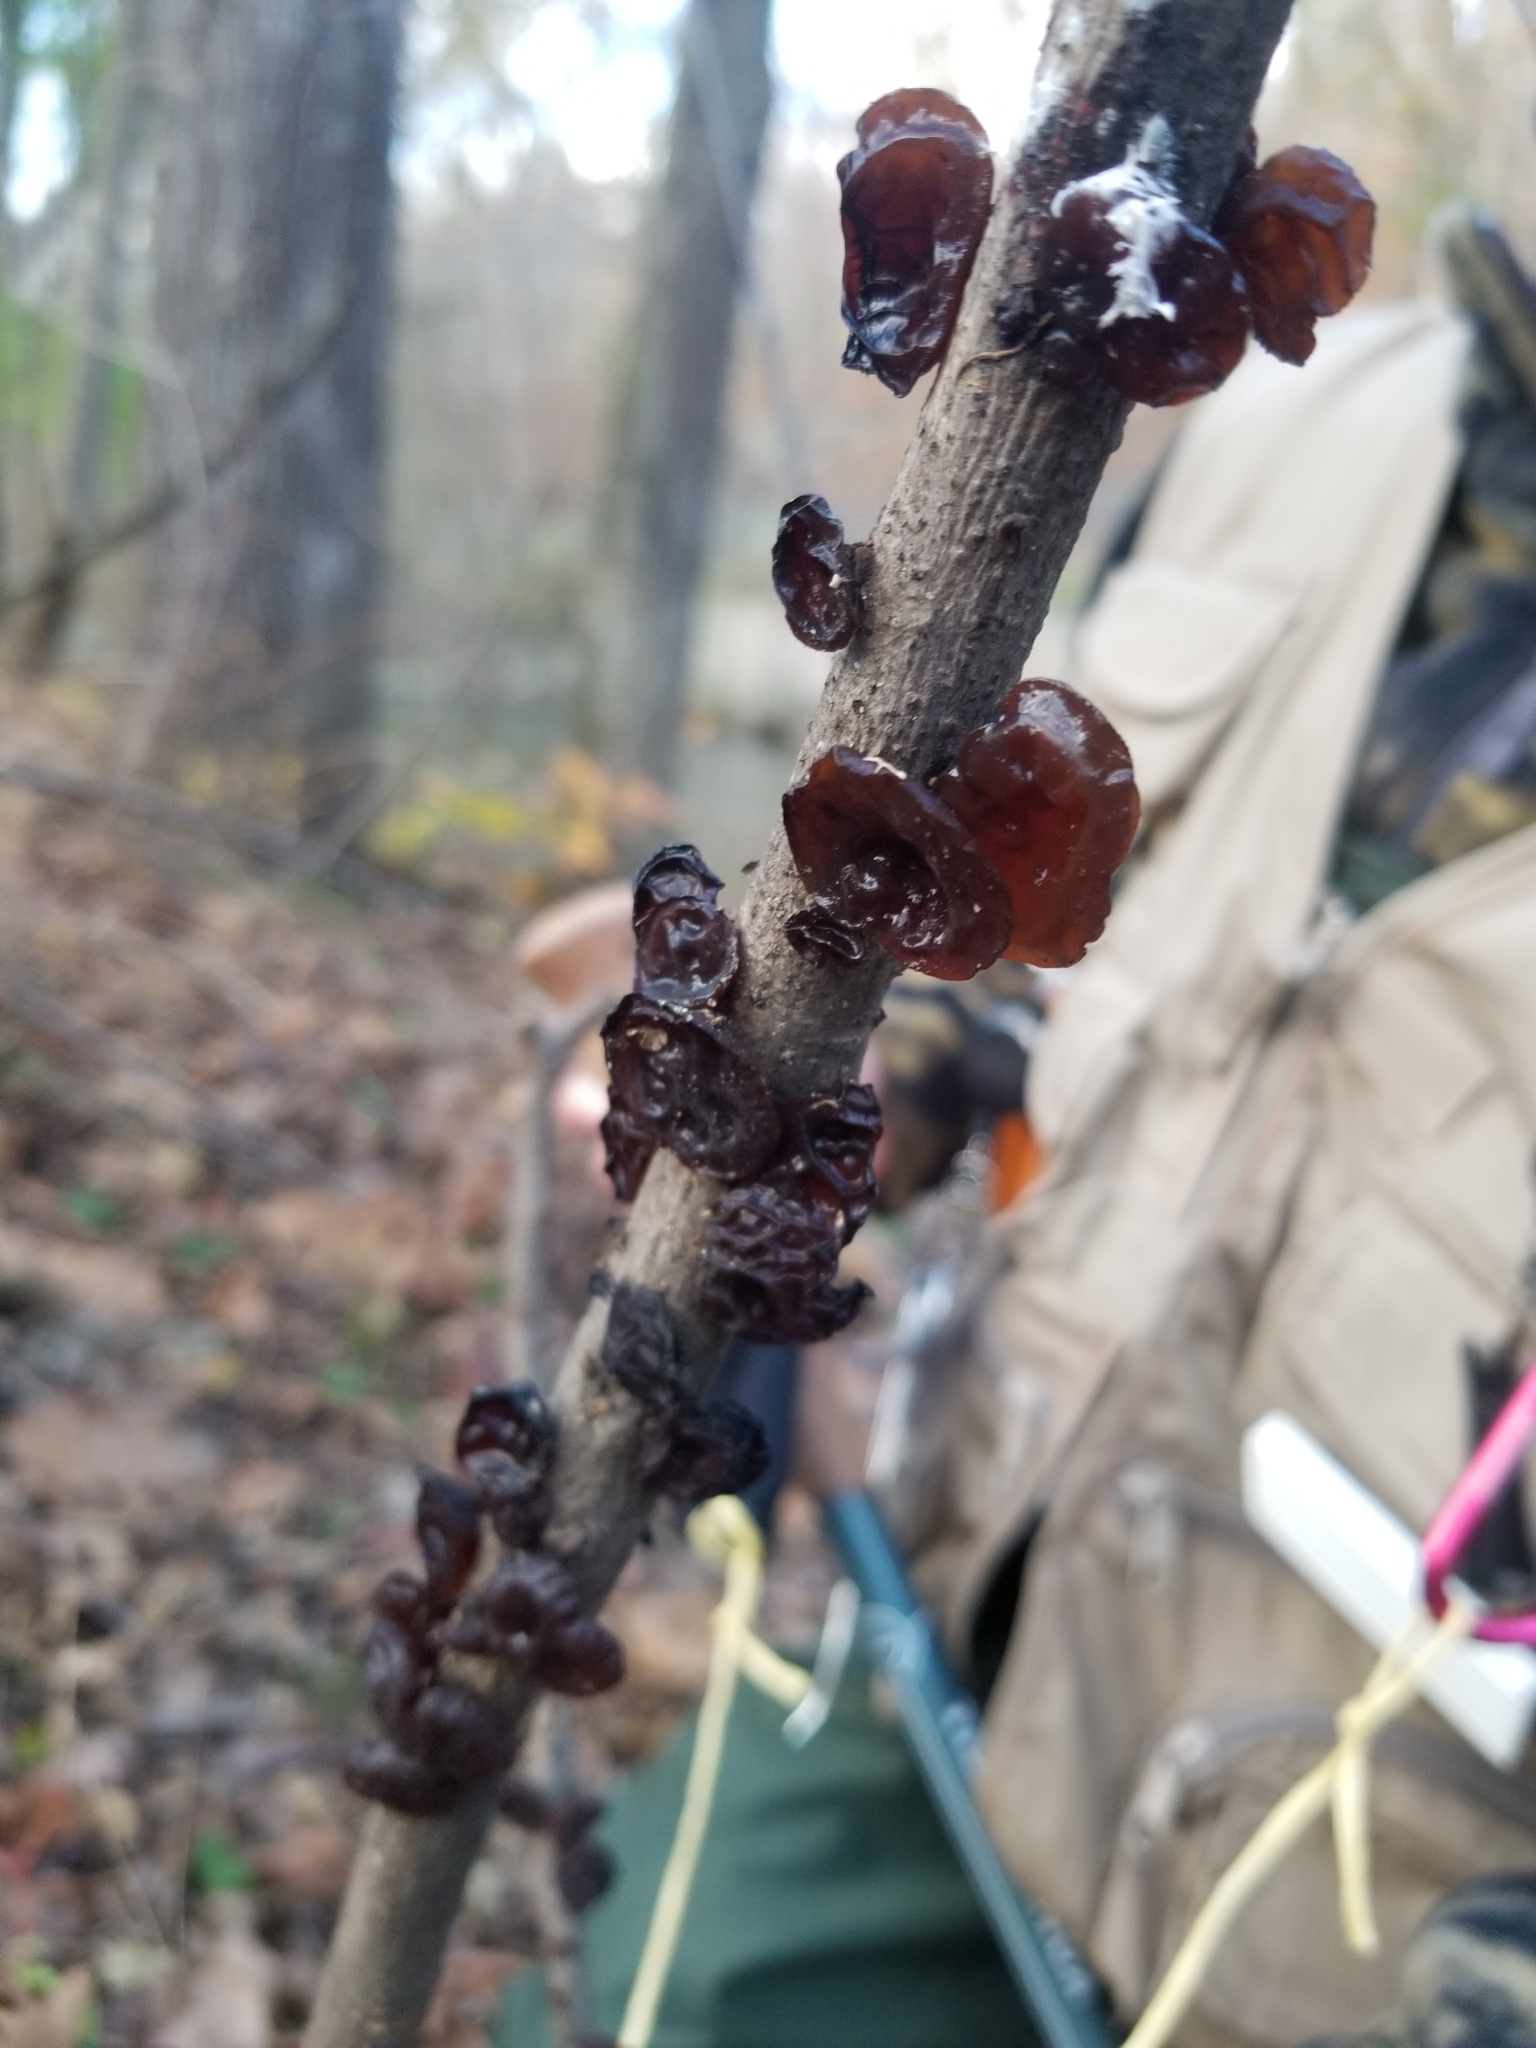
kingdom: Fungi
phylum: Basidiomycota
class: Agaricomycetes
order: Auriculariales
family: Auriculariaceae
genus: Exidia
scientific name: Exidia
